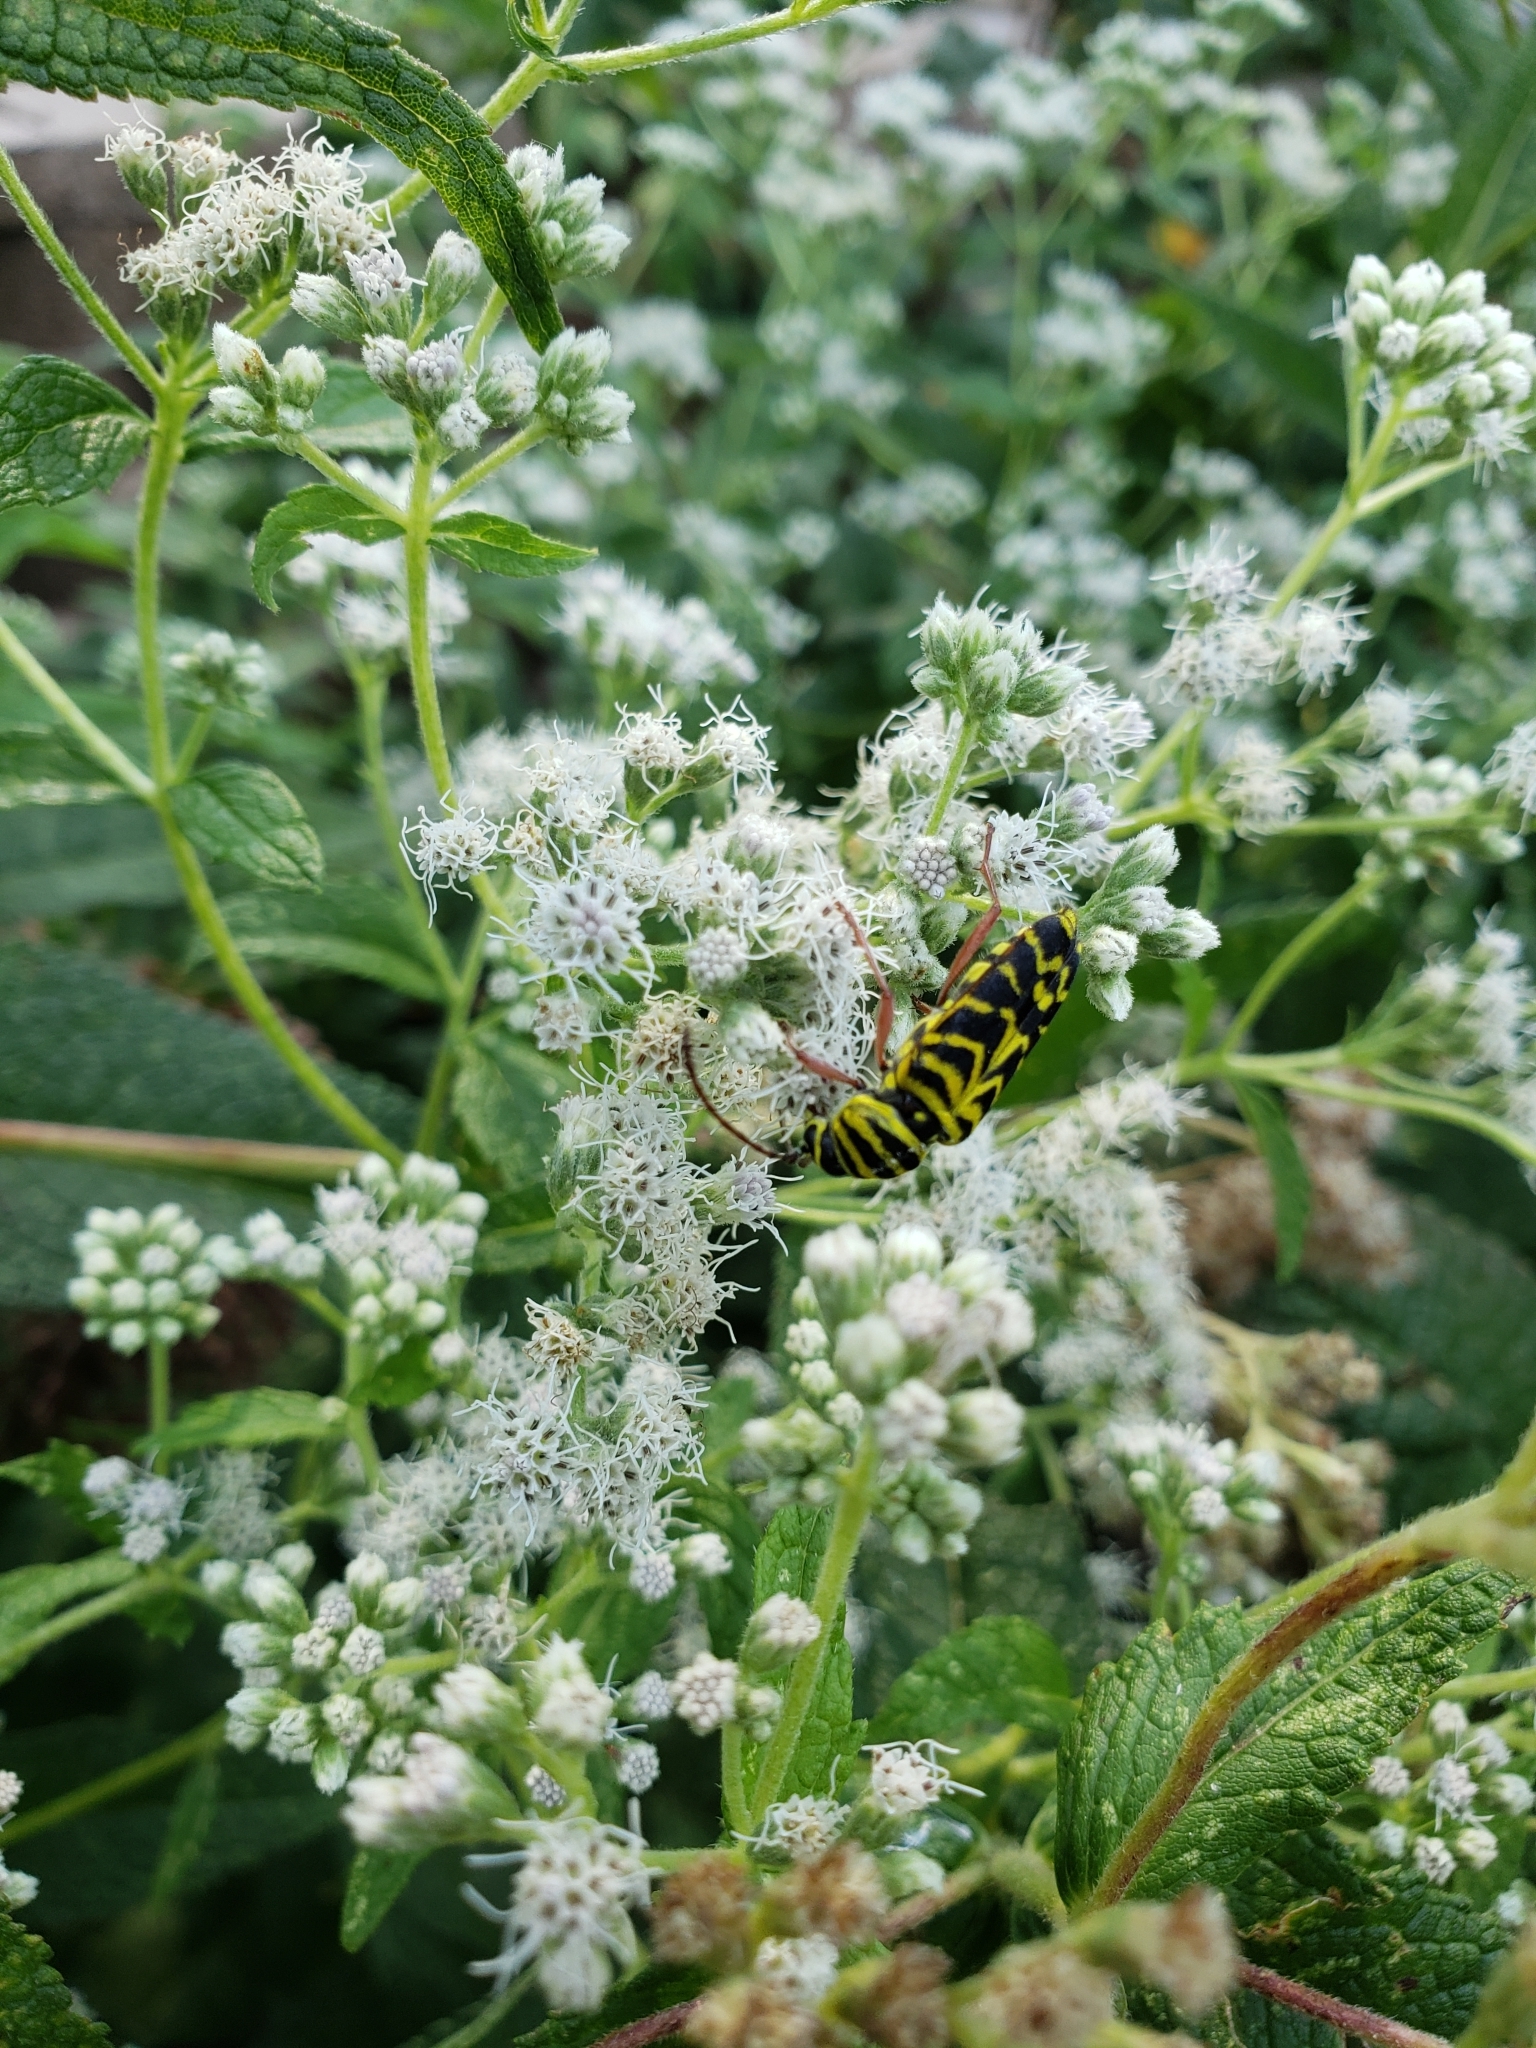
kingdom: Animalia
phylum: Arthropoda
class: Insecta
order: Coleoptera
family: Cerambycidae
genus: Megacyllene
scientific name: Megacyllene robiniae
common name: Locust borer
